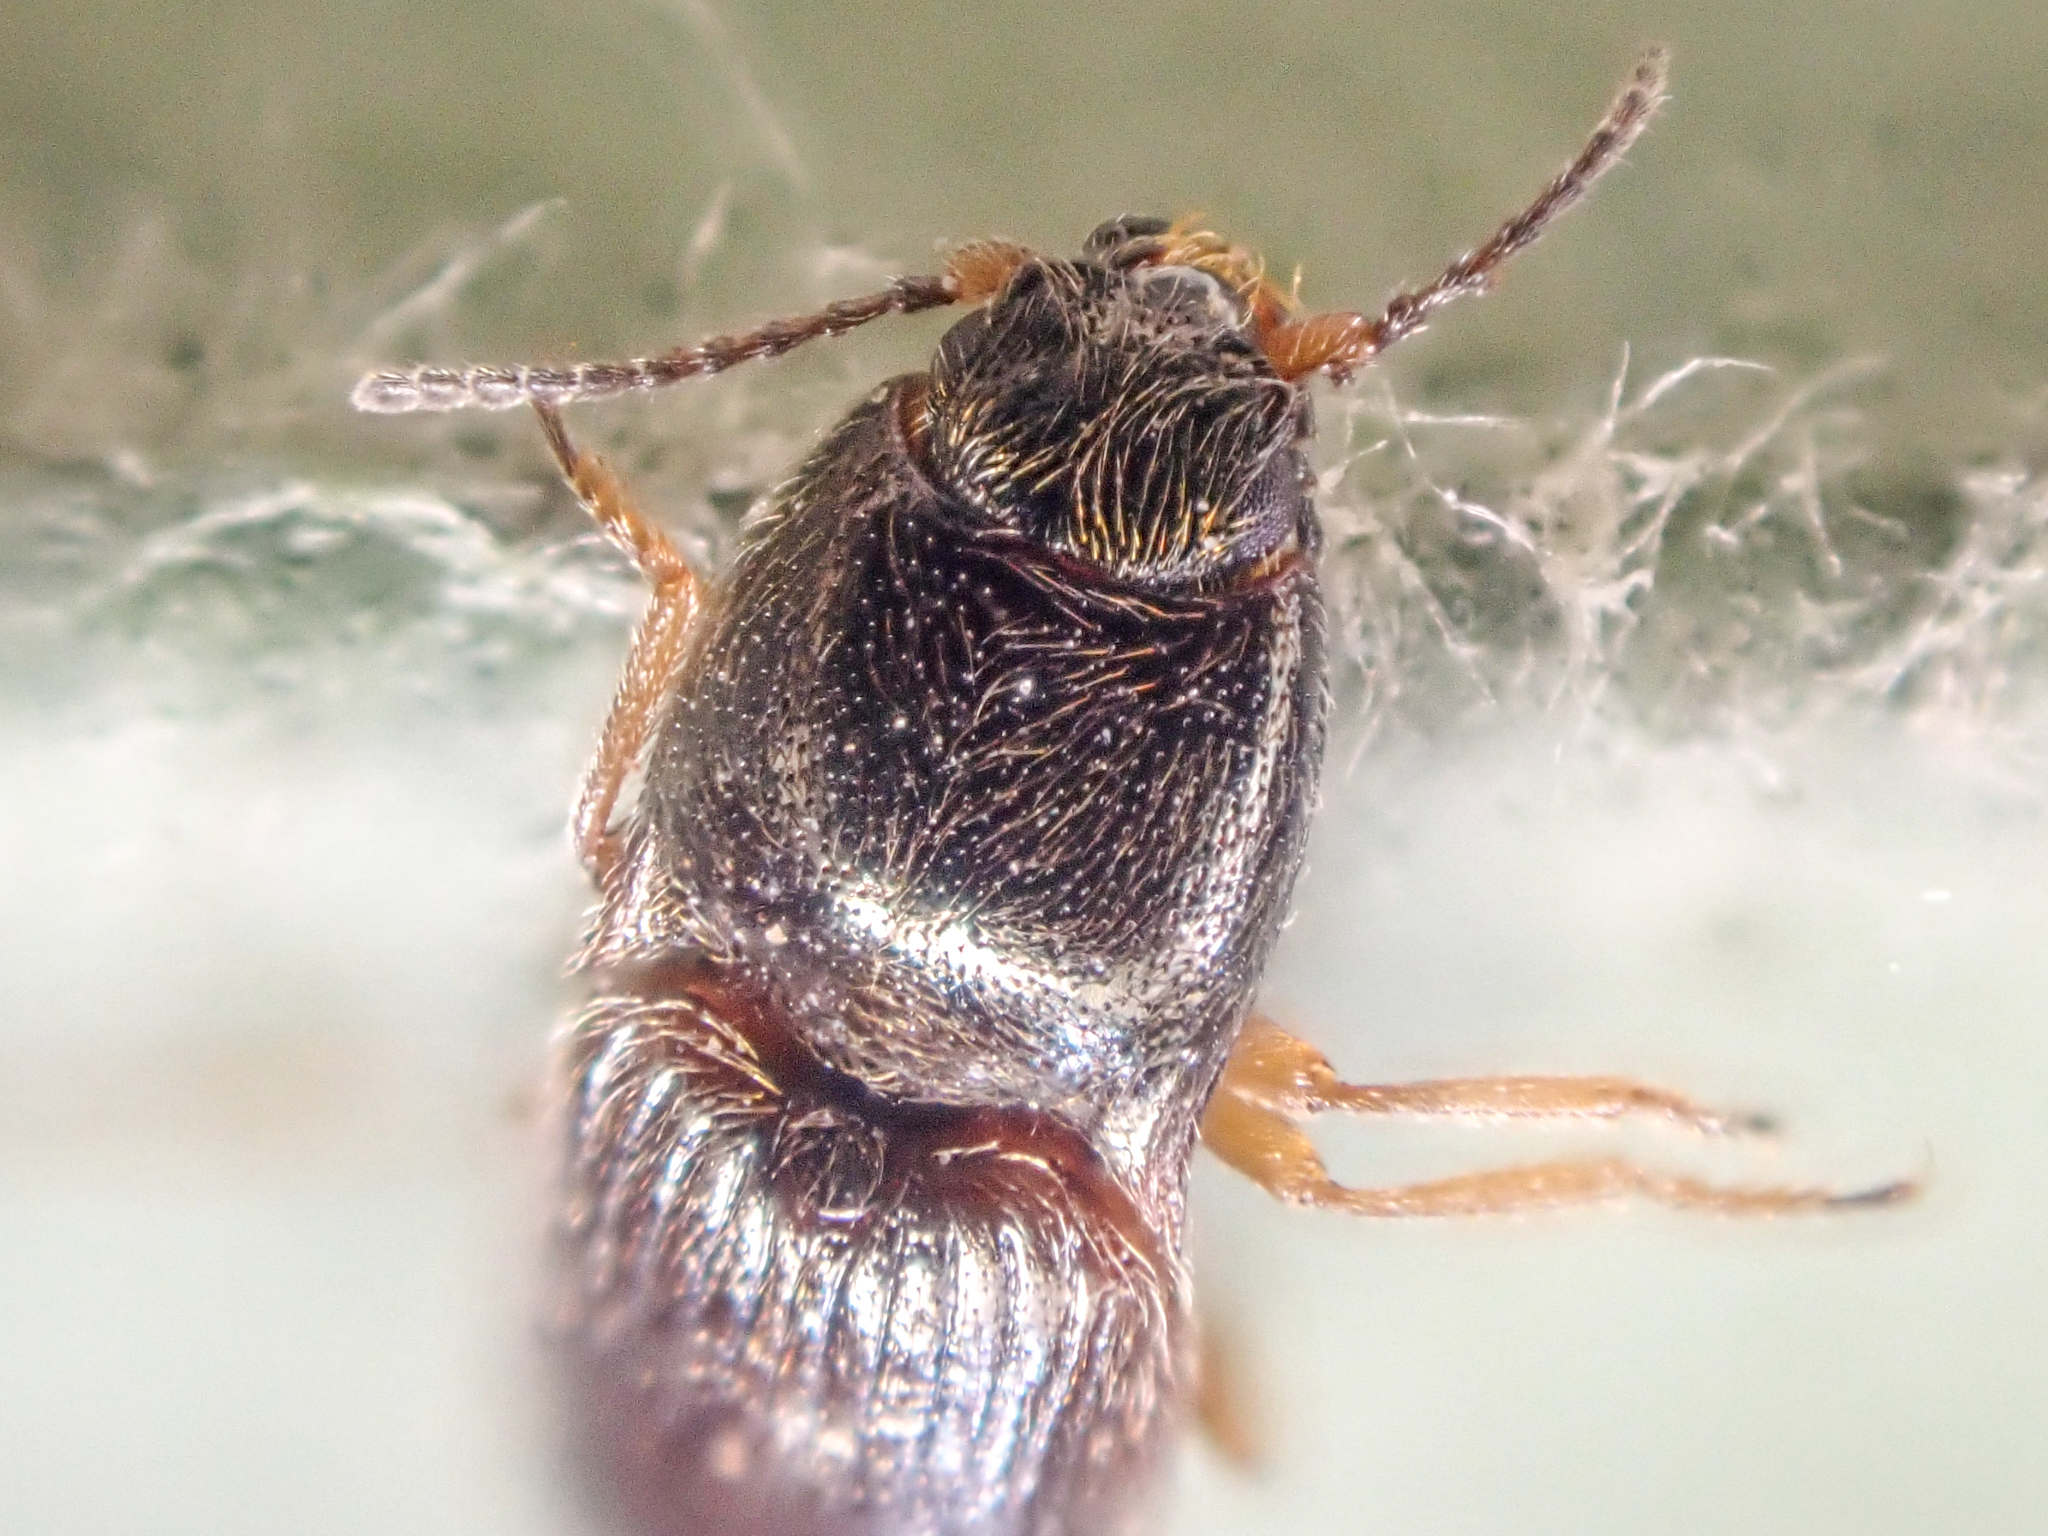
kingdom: Animalia
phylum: Arthropoda
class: Insecta
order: Coleoptera
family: Elateridae
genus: Hypnoidus
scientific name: Hypnoidus bicolor
